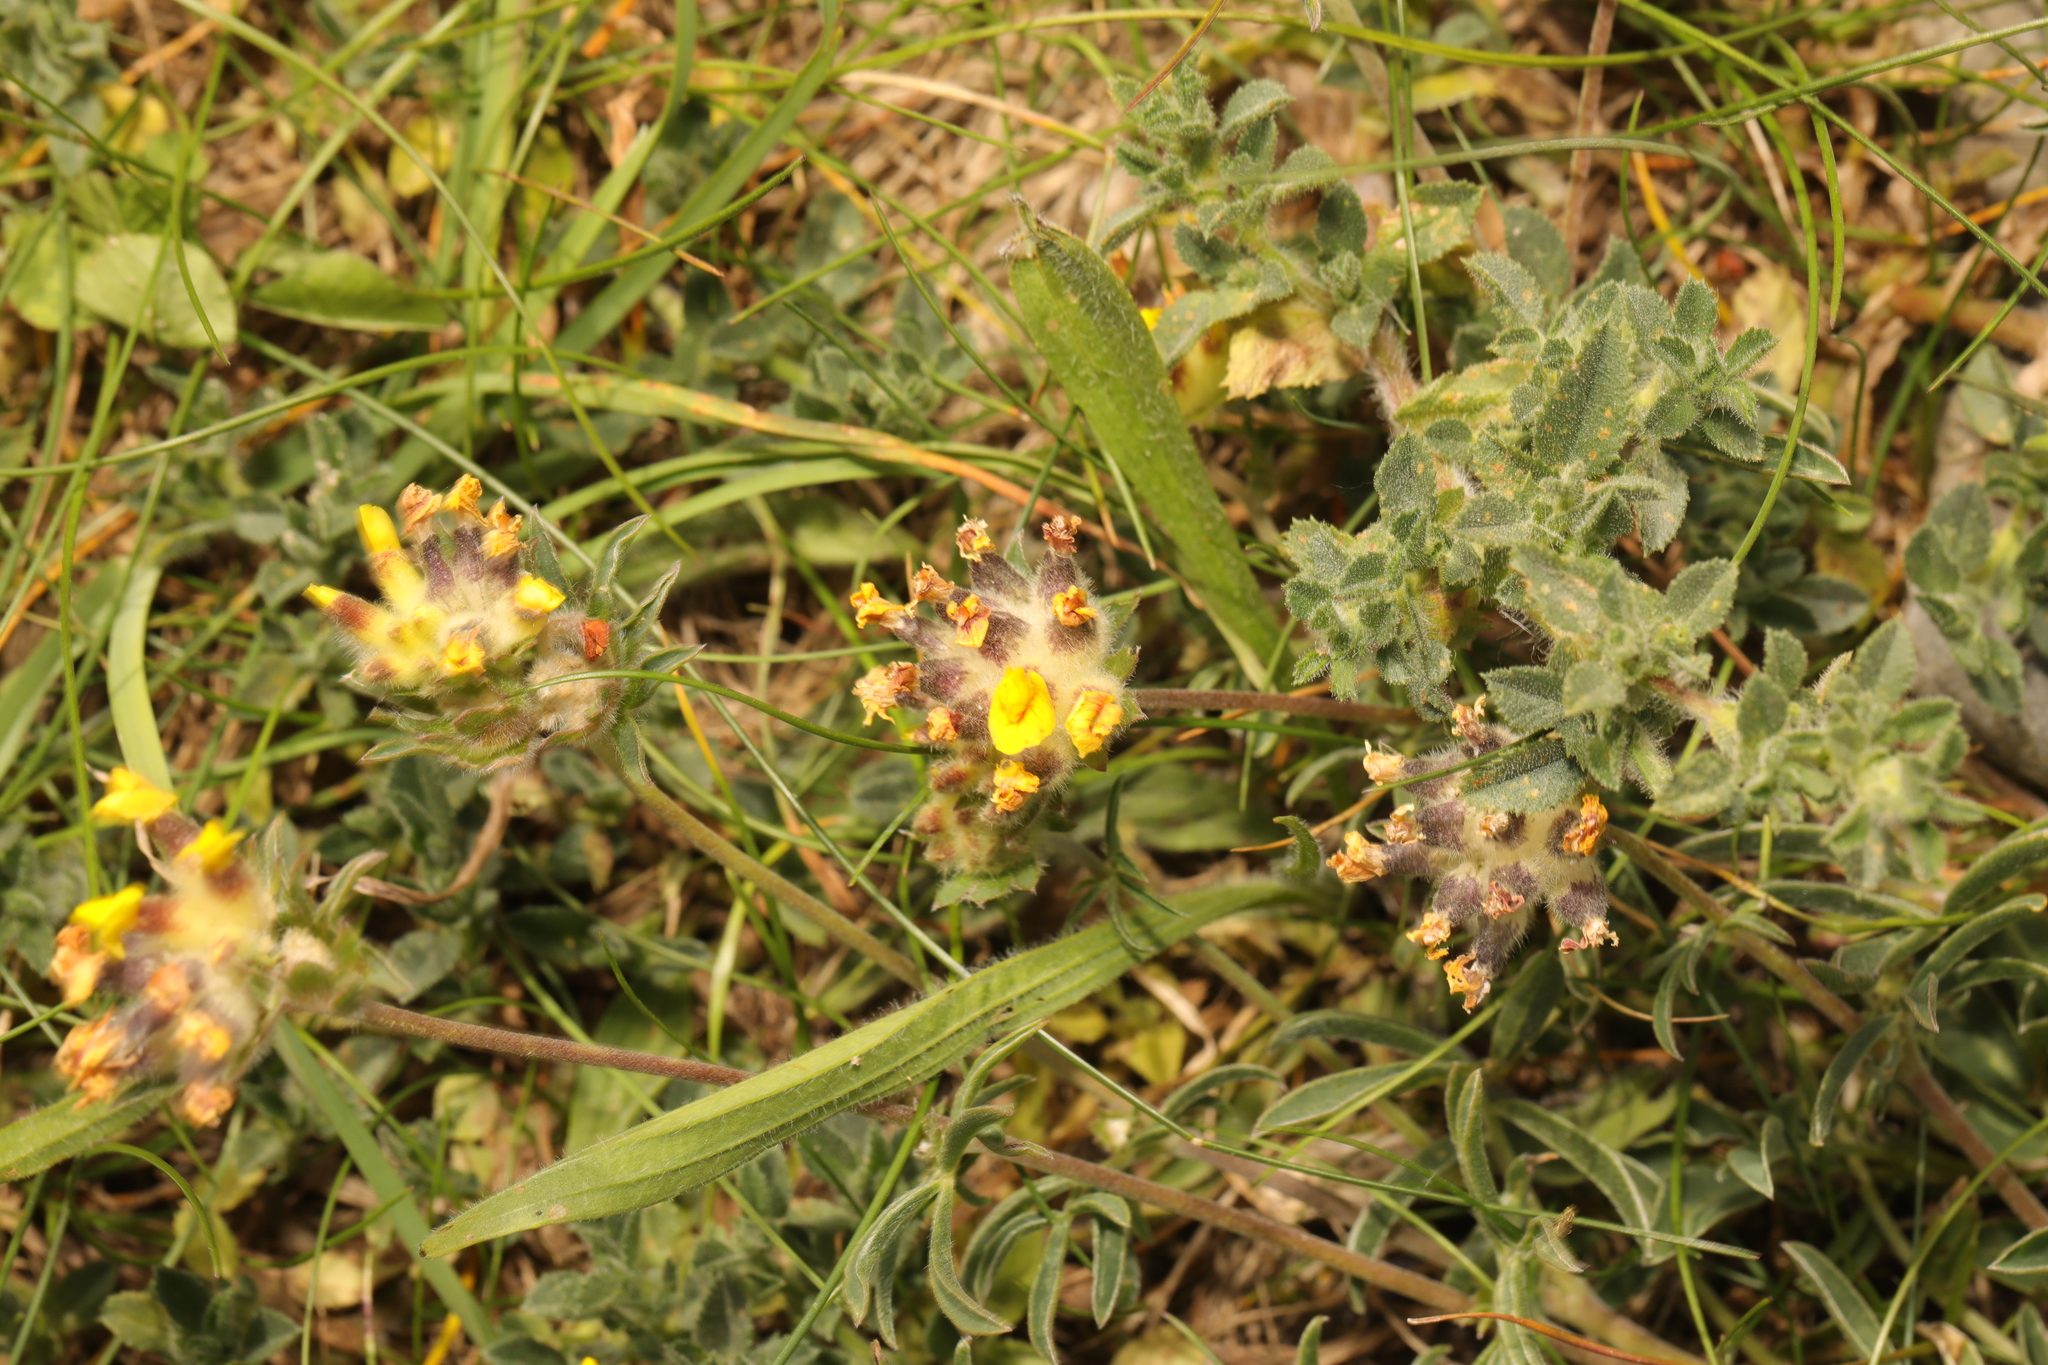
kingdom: Plantae
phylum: Tracheophyta
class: Magnoliopsida
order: Fabales
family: Fabaceae
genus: Anthyllis
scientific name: Anthyllis vulneraria
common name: Kidney vetch
